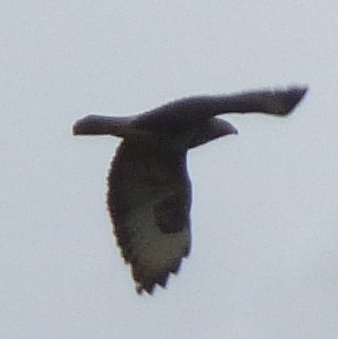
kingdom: Animalia
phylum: Chordata
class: Aves
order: Accipitriformes
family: Accipitridae
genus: Buteo
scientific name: Buteo buteo
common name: Common buzzard
